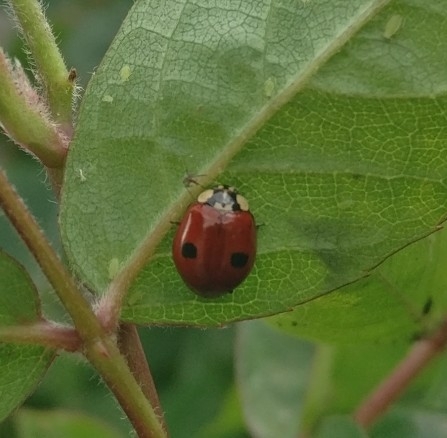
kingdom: Animalia
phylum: Arthropoda
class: Insecta
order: Coleoptera
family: Coccinellidae
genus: Adalia
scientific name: Adalia bipunctata
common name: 2-spot ladybird
